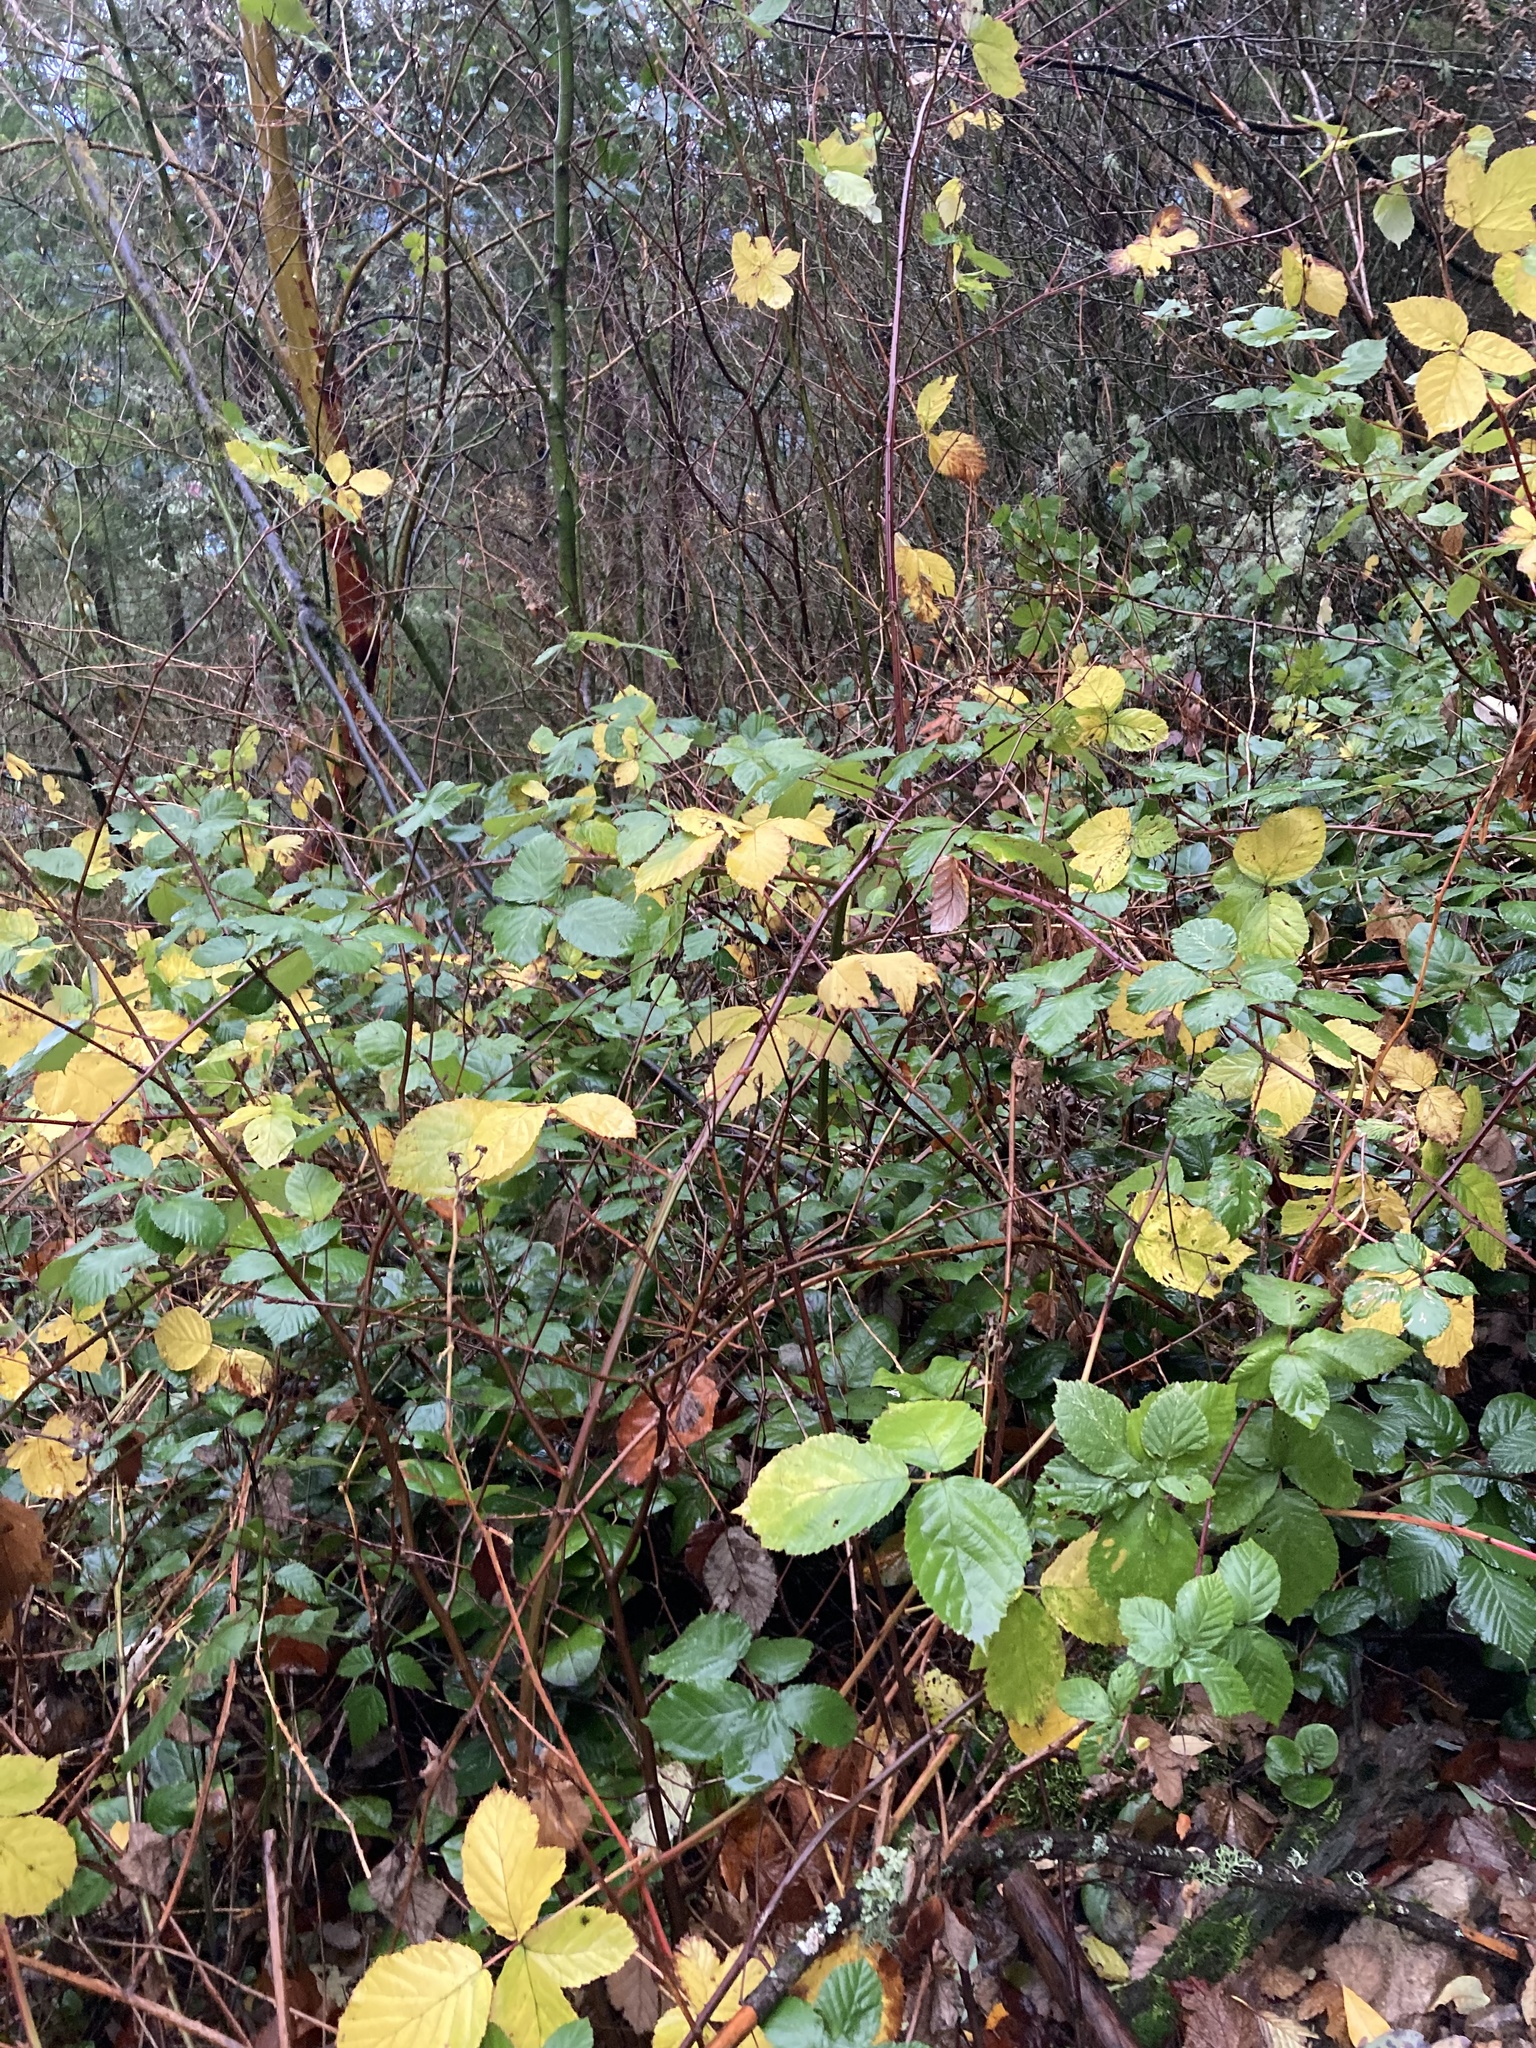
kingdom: Plantae
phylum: Tracheophyta
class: Magnoliopsida
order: Rosales
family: Rosaceae
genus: Rubus
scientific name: Rubus bifrons
